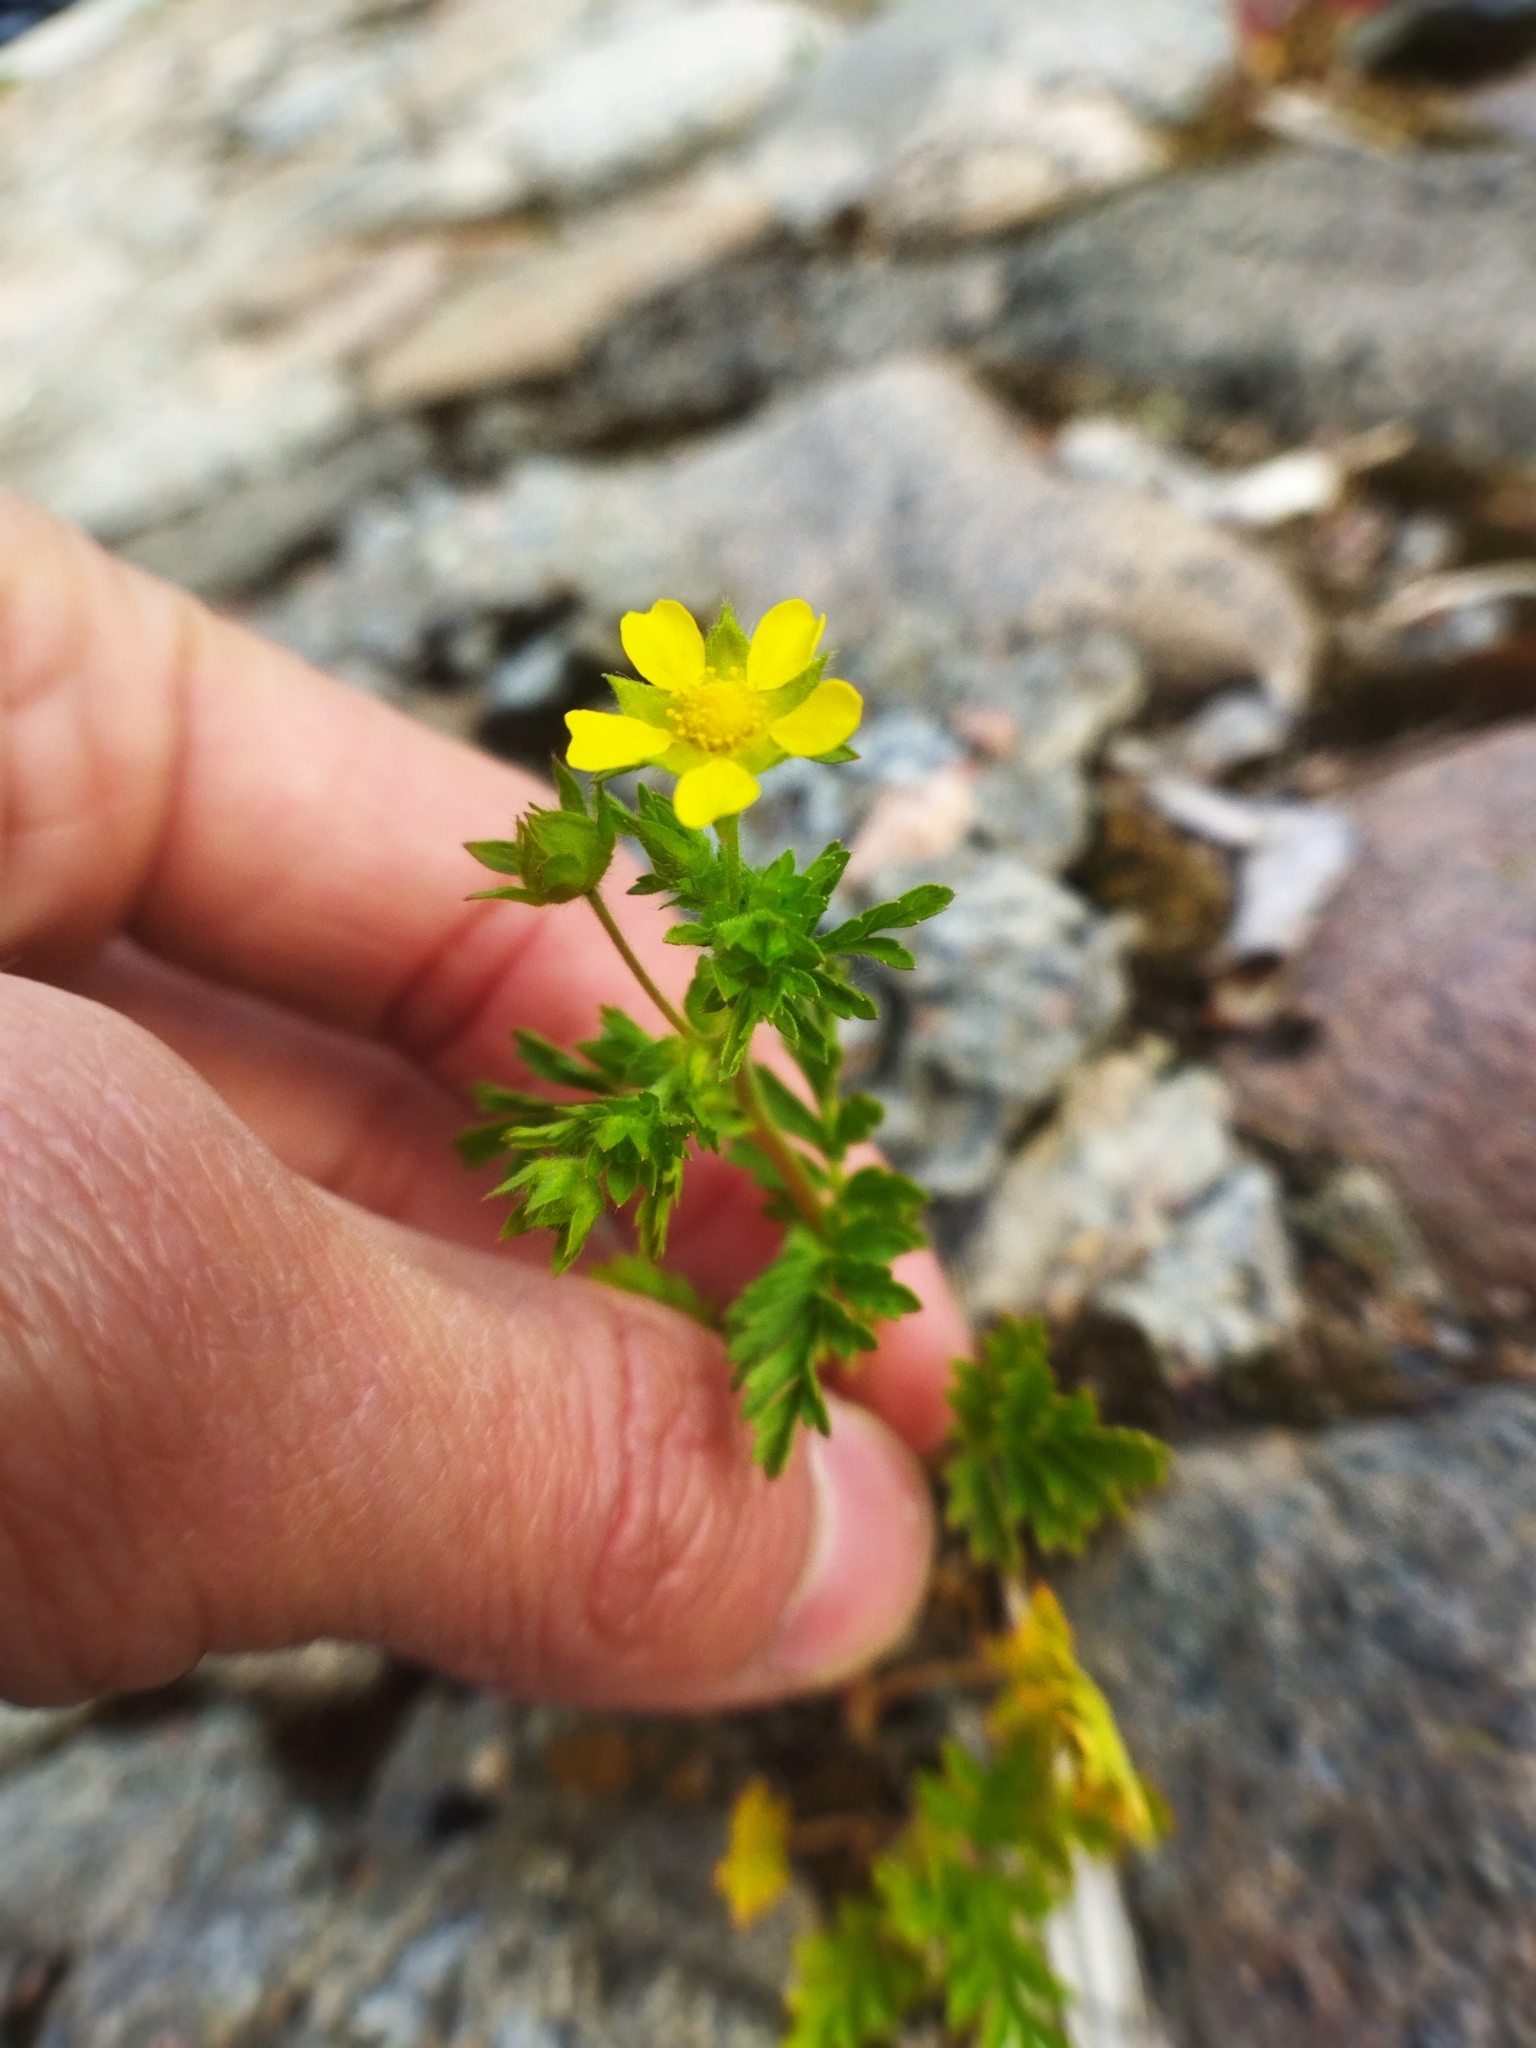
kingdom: Plantae
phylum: Tracheophyta
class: Magnoliopsida
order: Rosales
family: Rosaceae
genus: Potentilla
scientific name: Potentilla supina
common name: Prostrate cinquefoil
